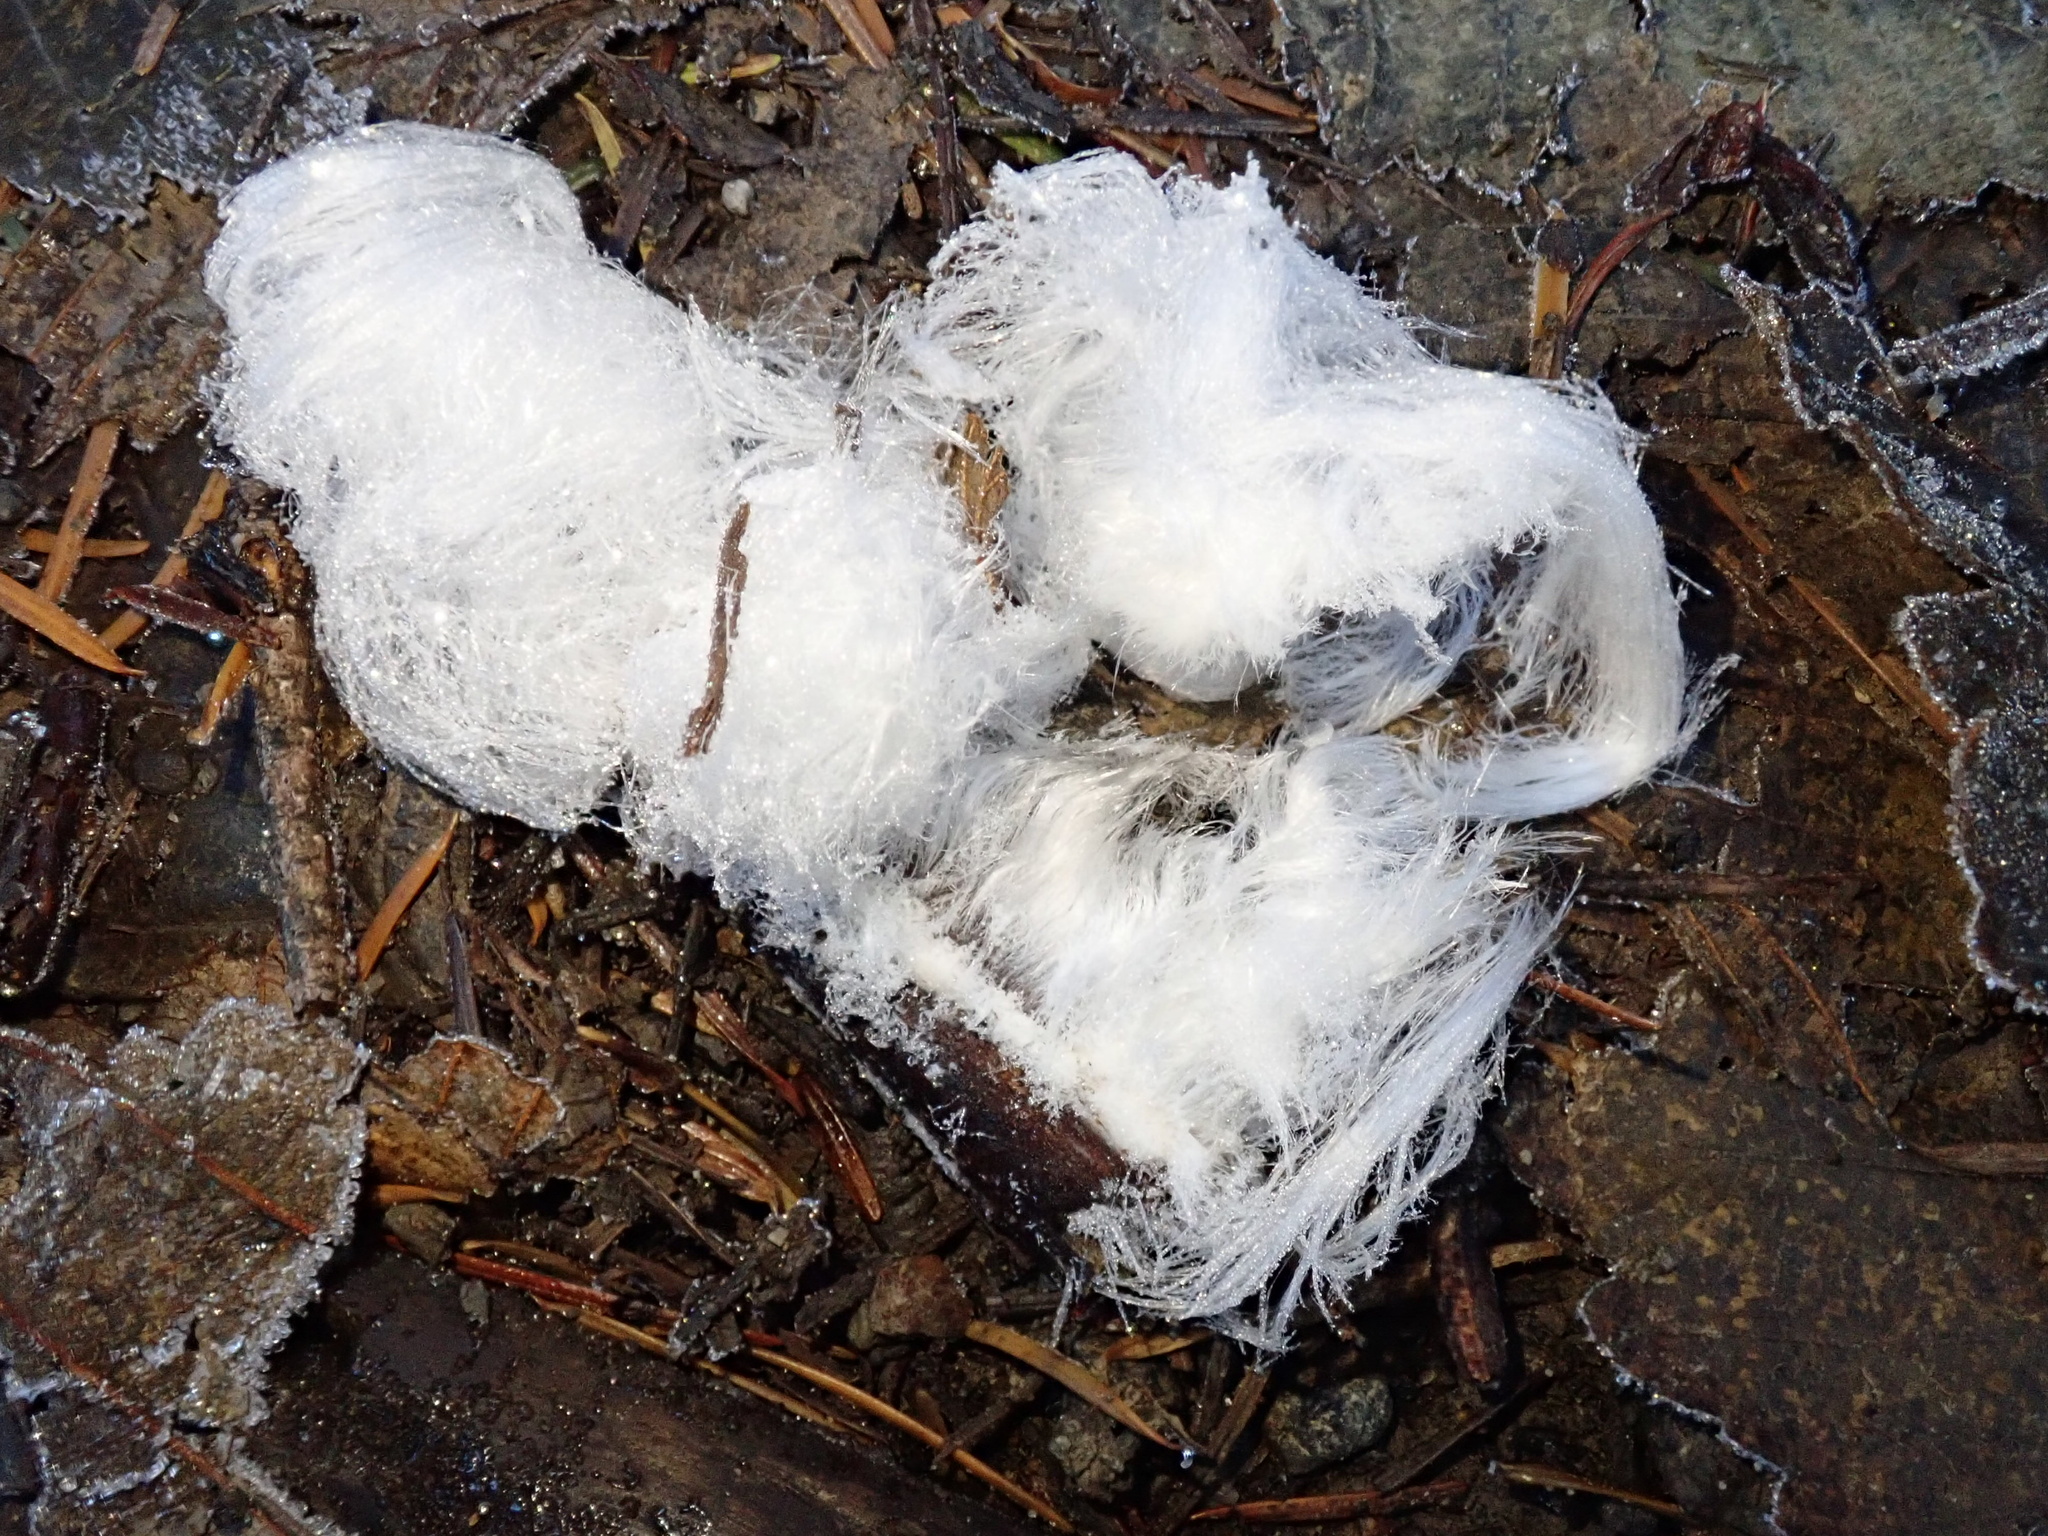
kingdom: Fungi
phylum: Basidiomycota
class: Agaricomycetes
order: Auriculariales
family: Auriculariaceae
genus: Exidiopsis
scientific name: Exidiopsis effusa
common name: Hair ice crust
